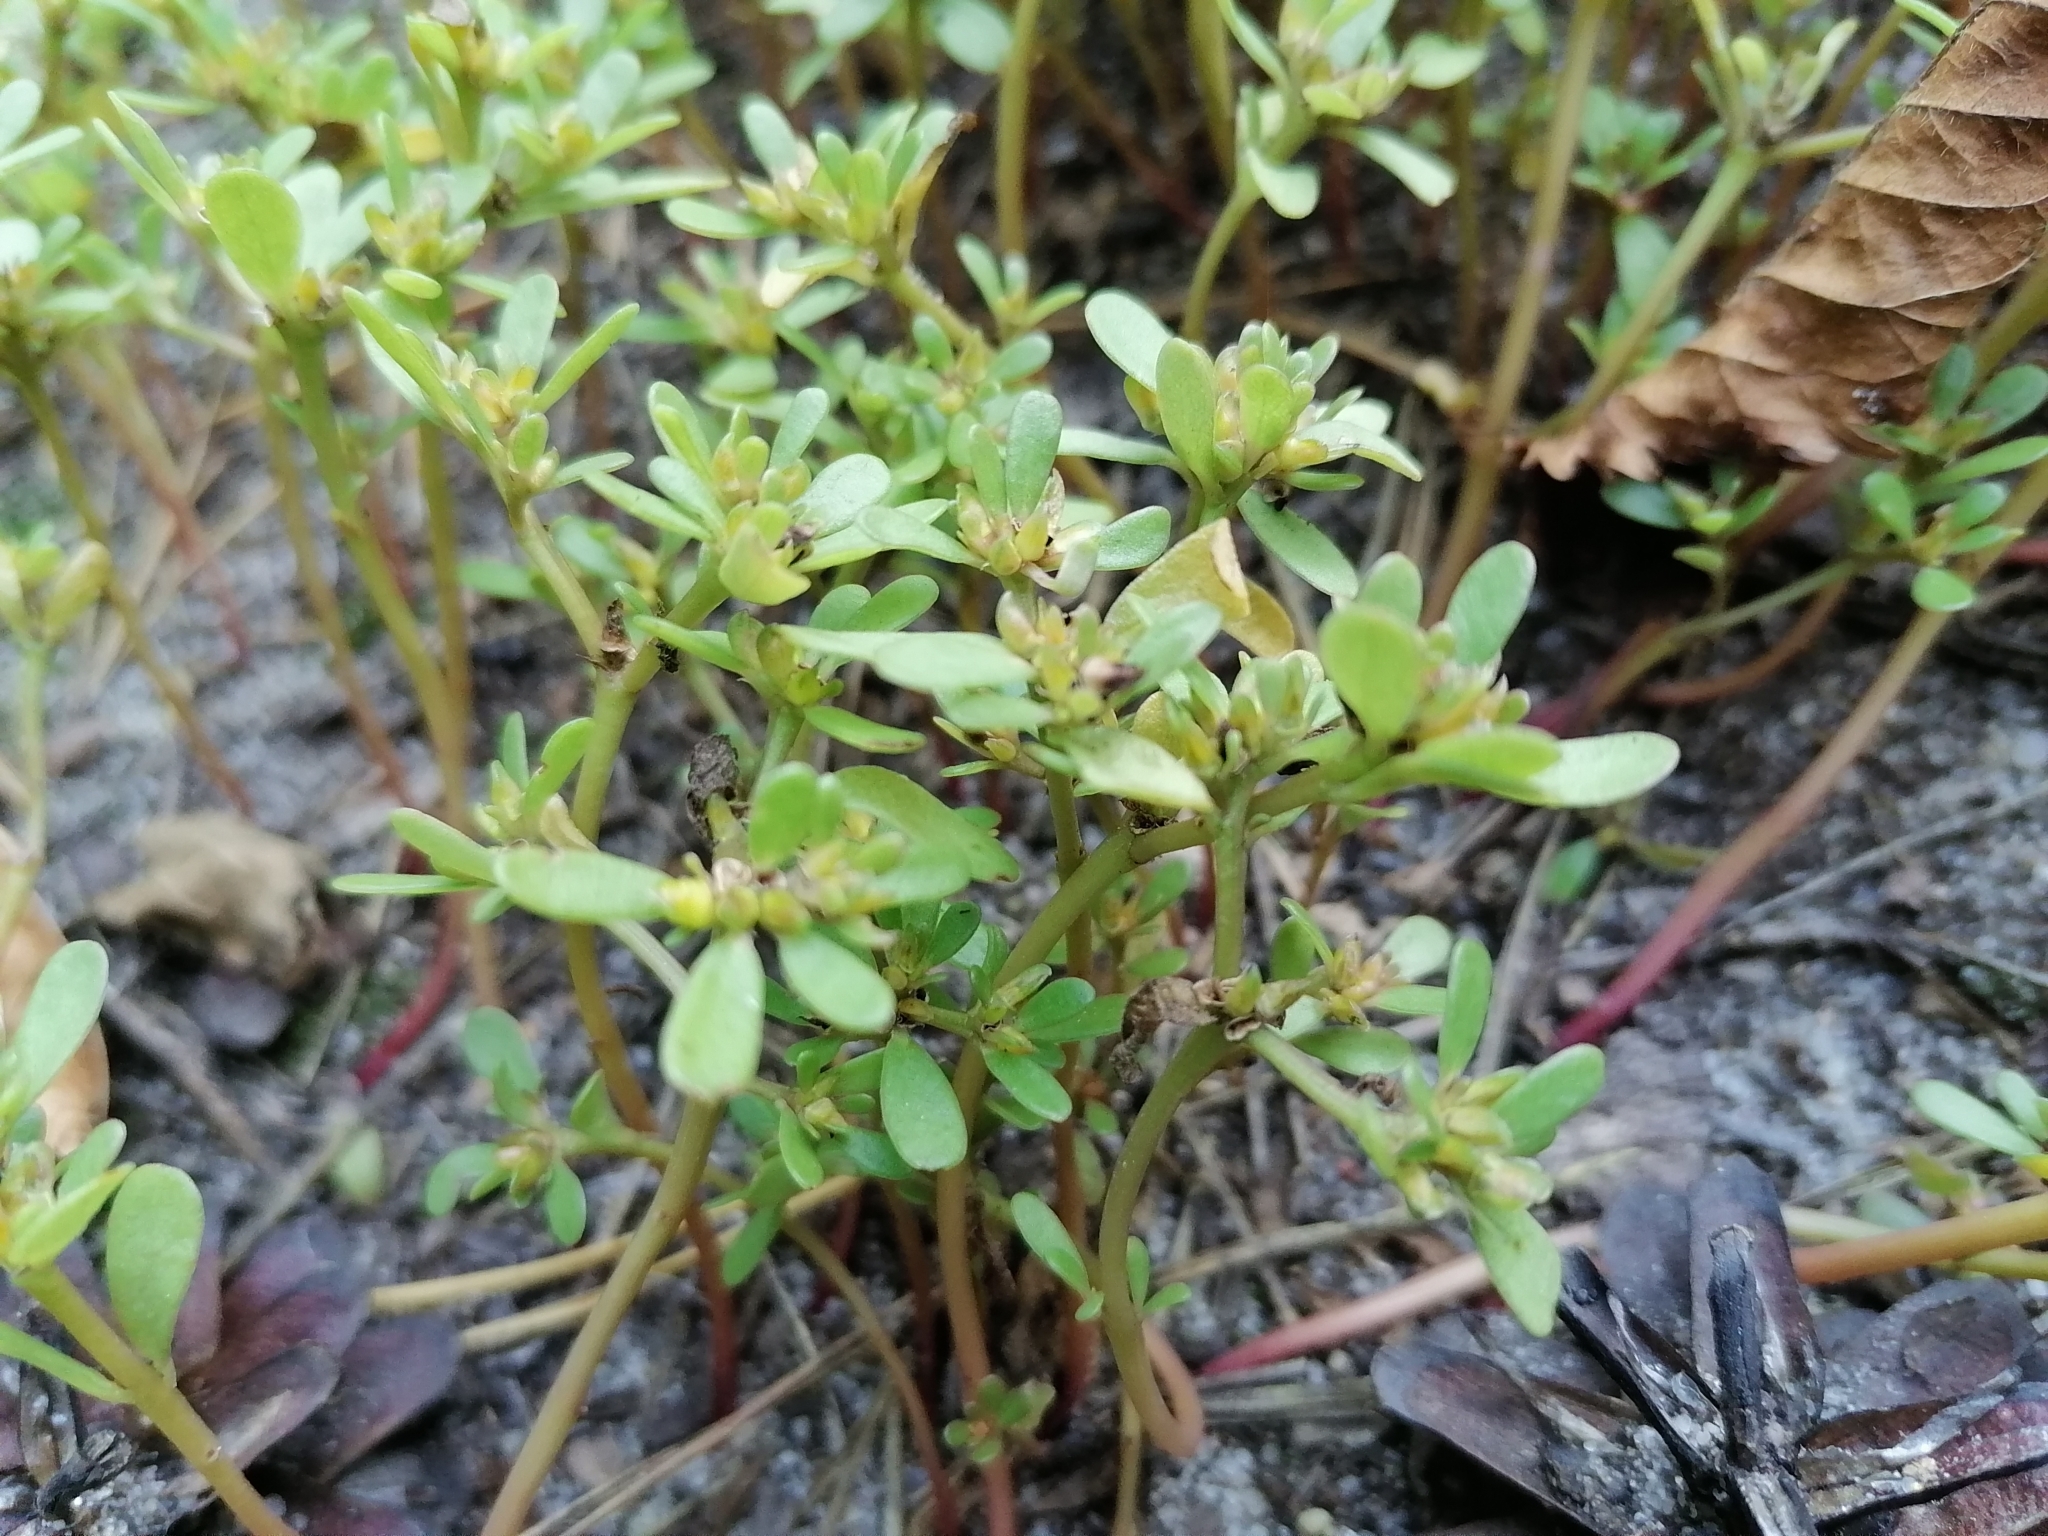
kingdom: Plantae
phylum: Tracheophyta
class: Magnoliopsida
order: Caryophyllales
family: Portulacaceae
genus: Portulaca
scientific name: Portulaca oleracea
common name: Common purslane
